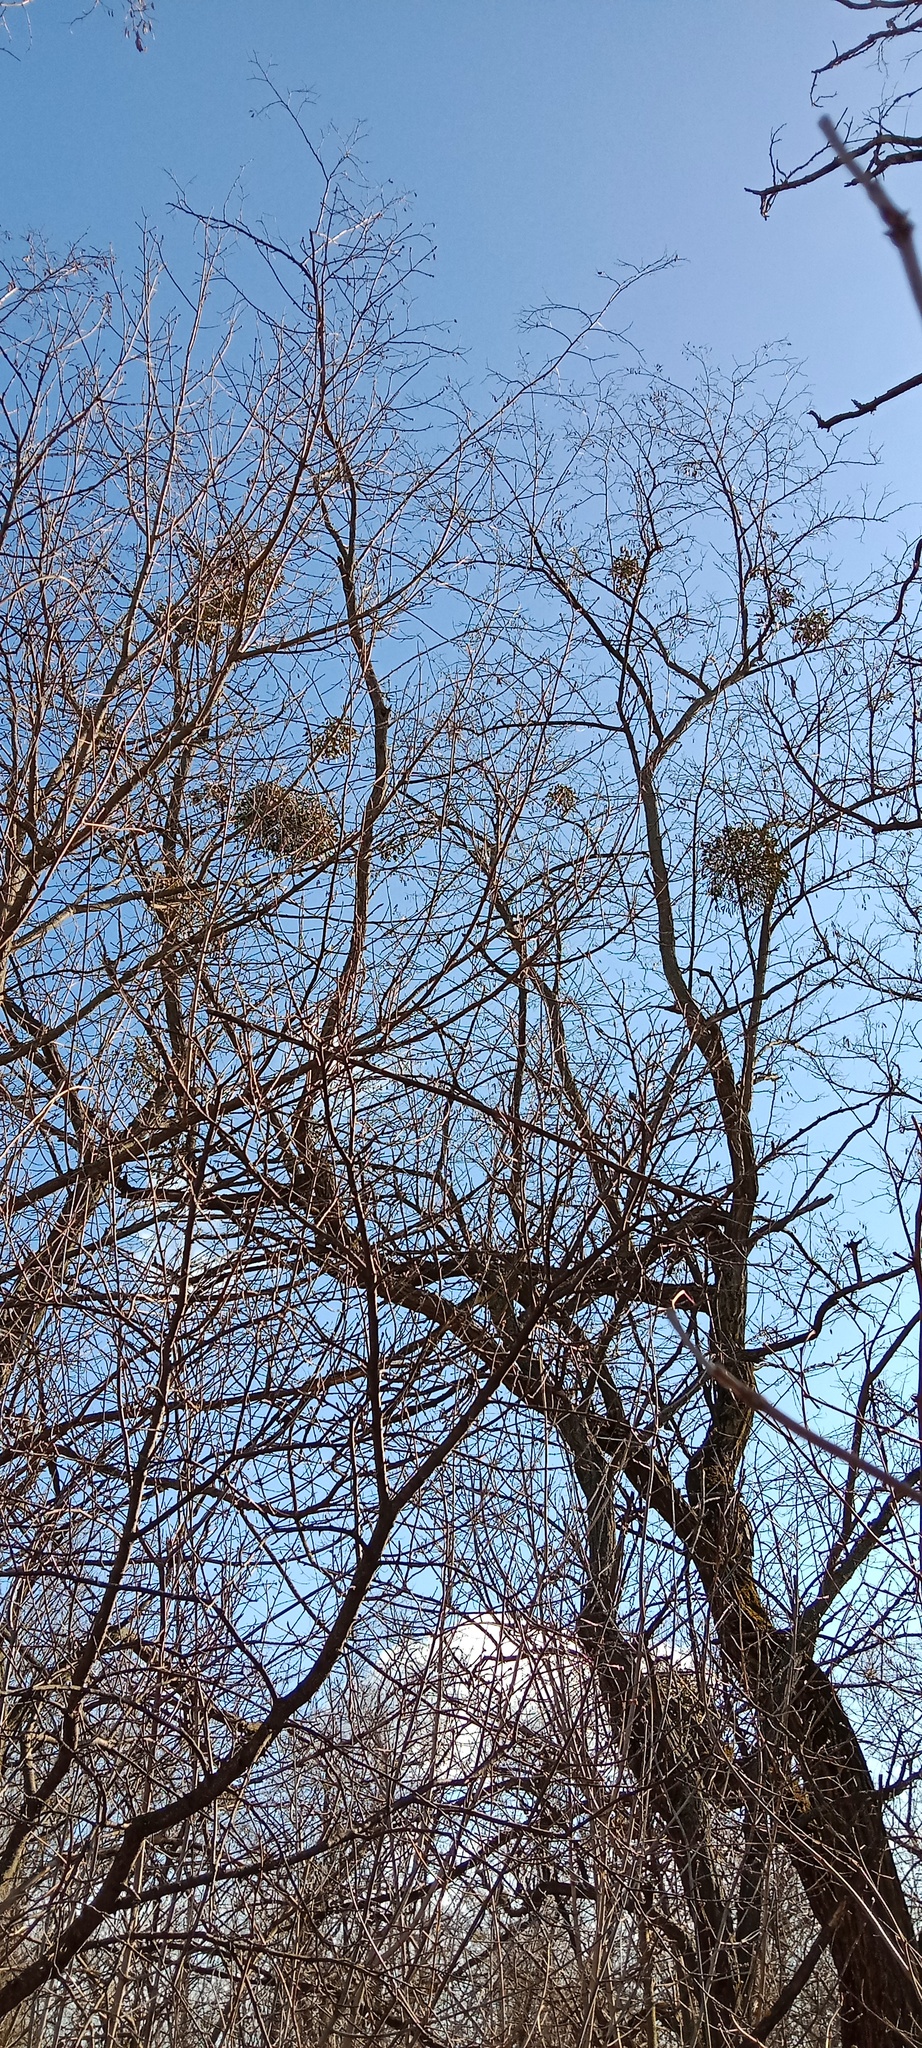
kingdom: Plantae
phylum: Tracheophyta
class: Magnoliopsida
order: Santalales
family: Viscaceae
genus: Viscum
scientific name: Viscum album
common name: Mistletoe
